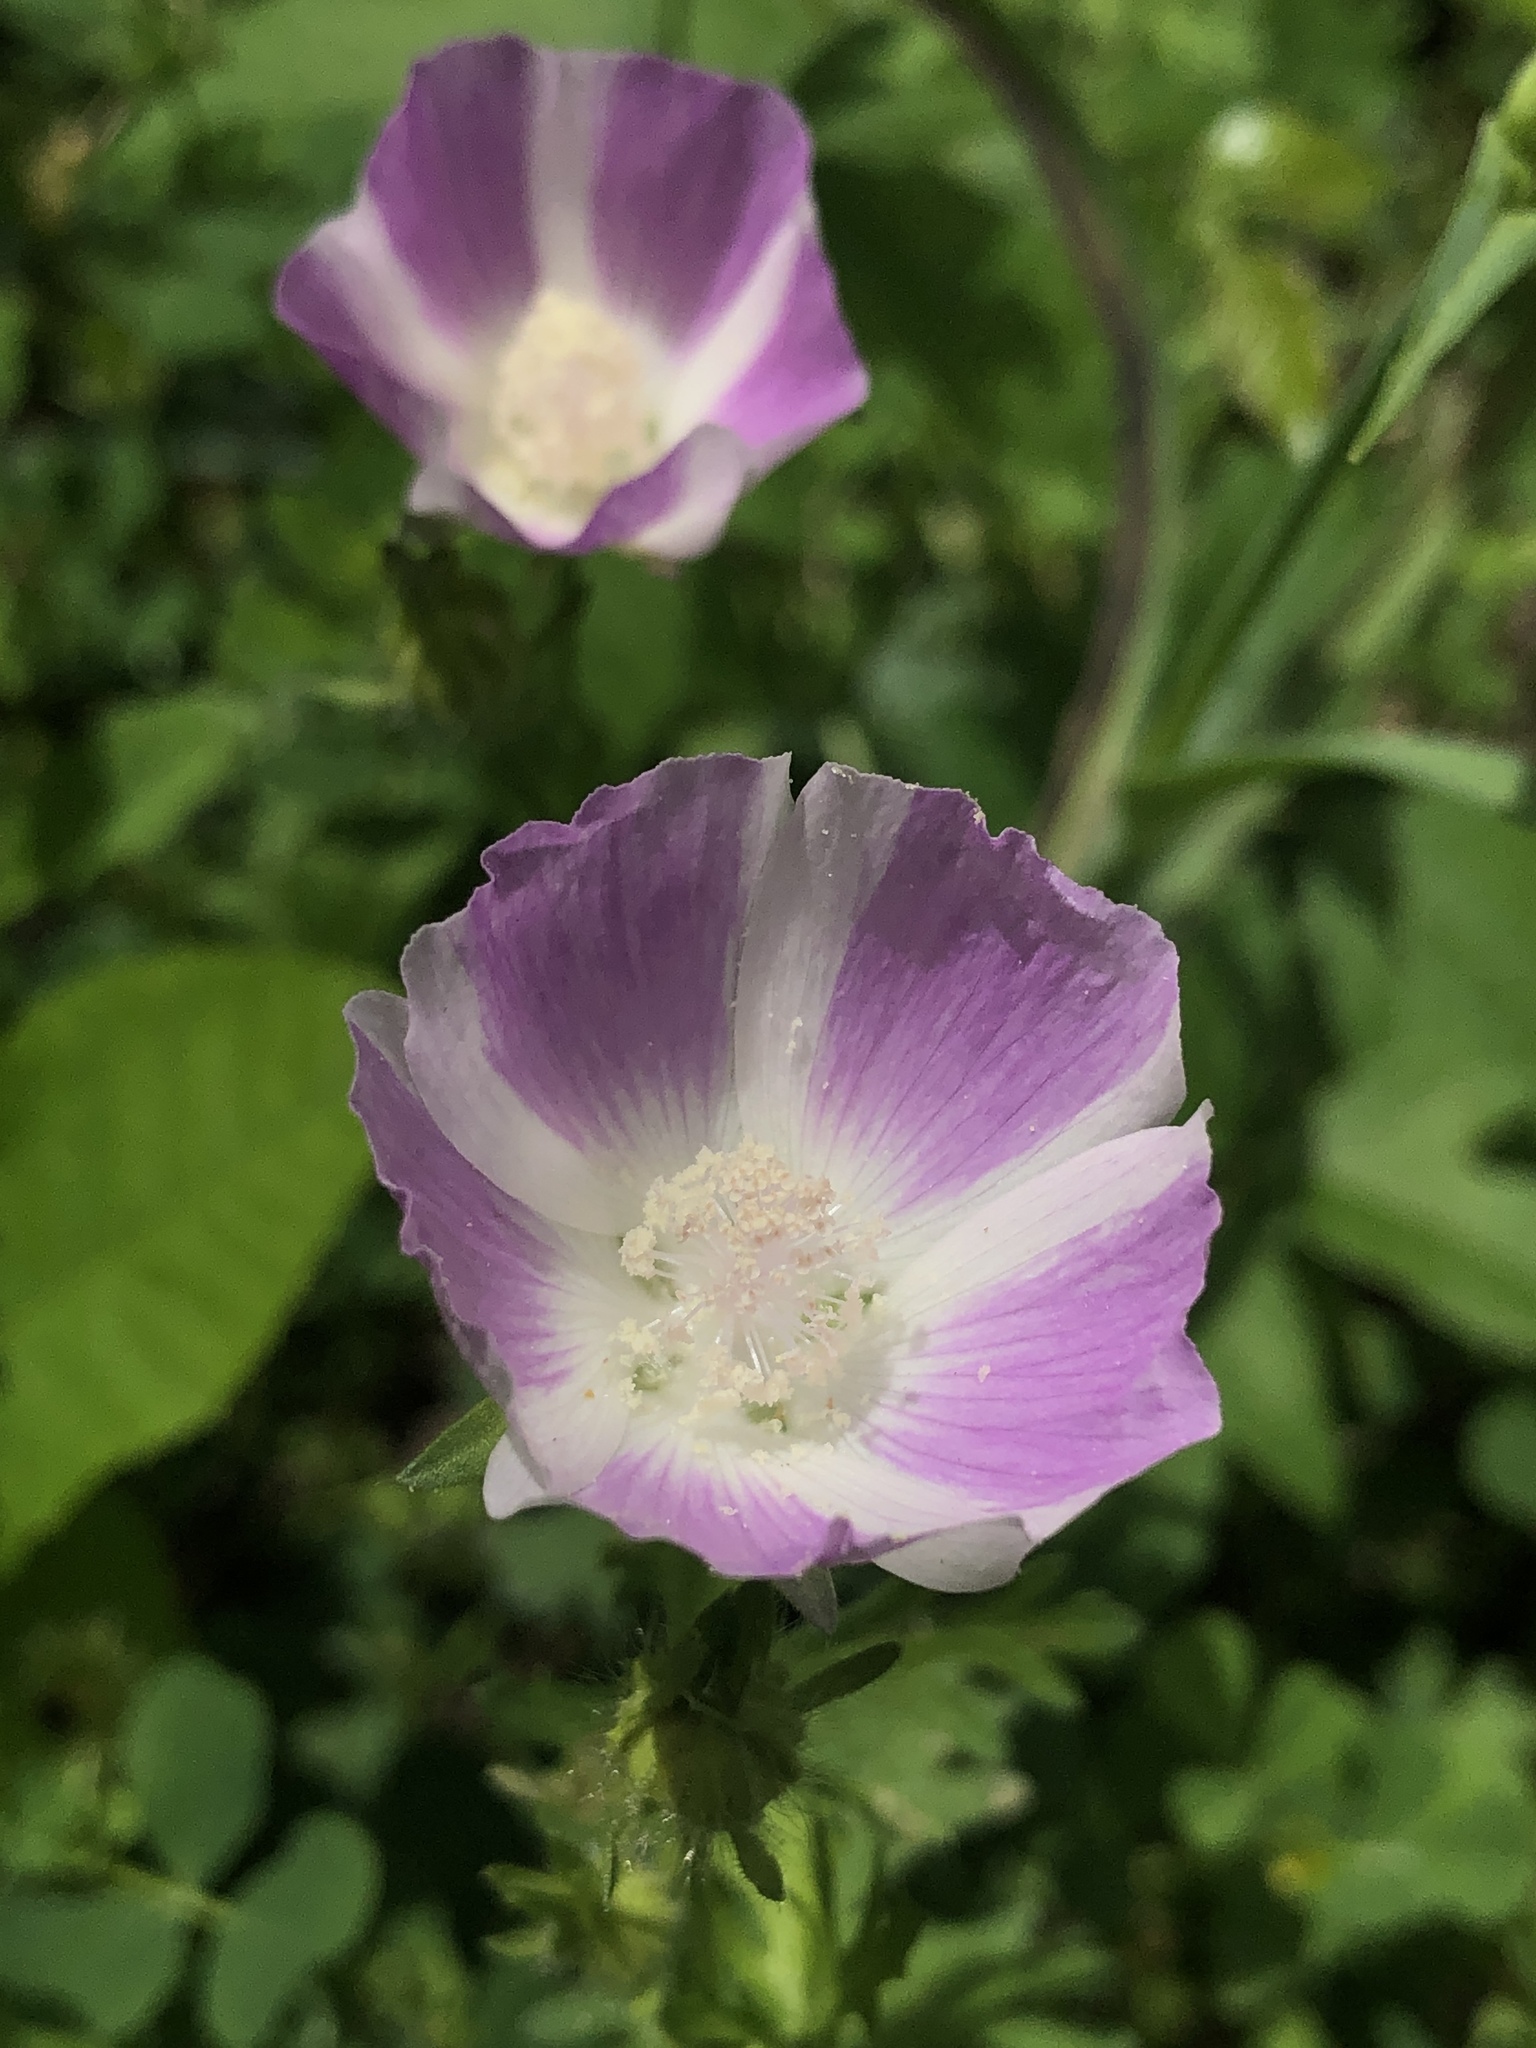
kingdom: Plantae
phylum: Tracheophyta
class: Magnoliopsida
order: Malvales
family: Malvaceae
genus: Callirhoe
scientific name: Callirhoe involucrata
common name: Purple poppy-mallow
